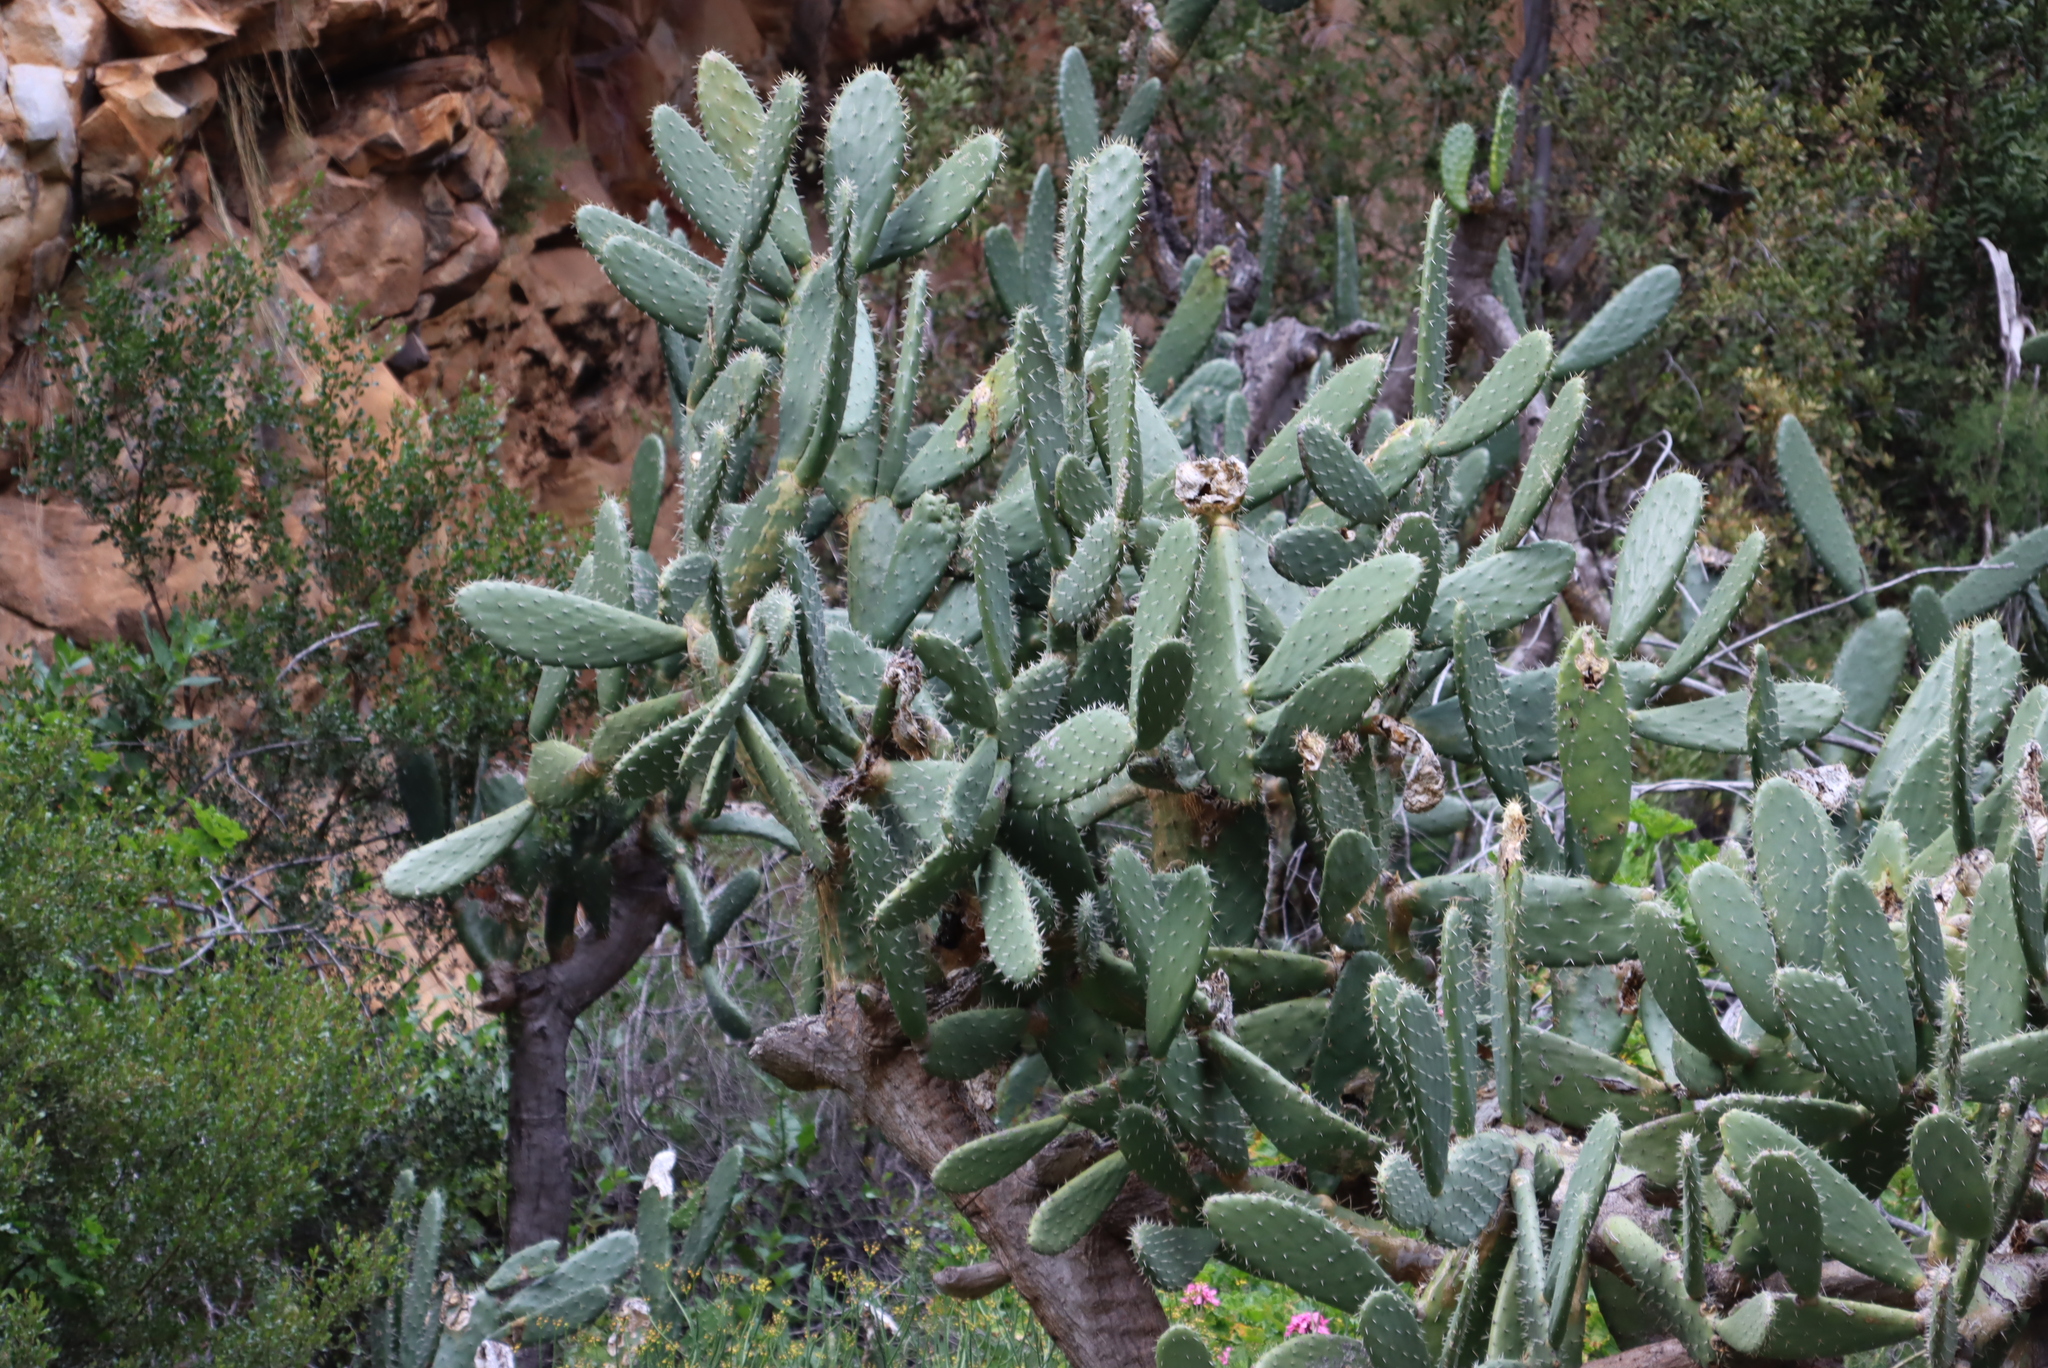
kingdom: Plantae
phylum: Tracheophyta
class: Magnoliopsida
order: Caryophyllales
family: Cactaceae
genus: Opuntia
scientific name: Opuntia ficus-indica
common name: Barbary fig
